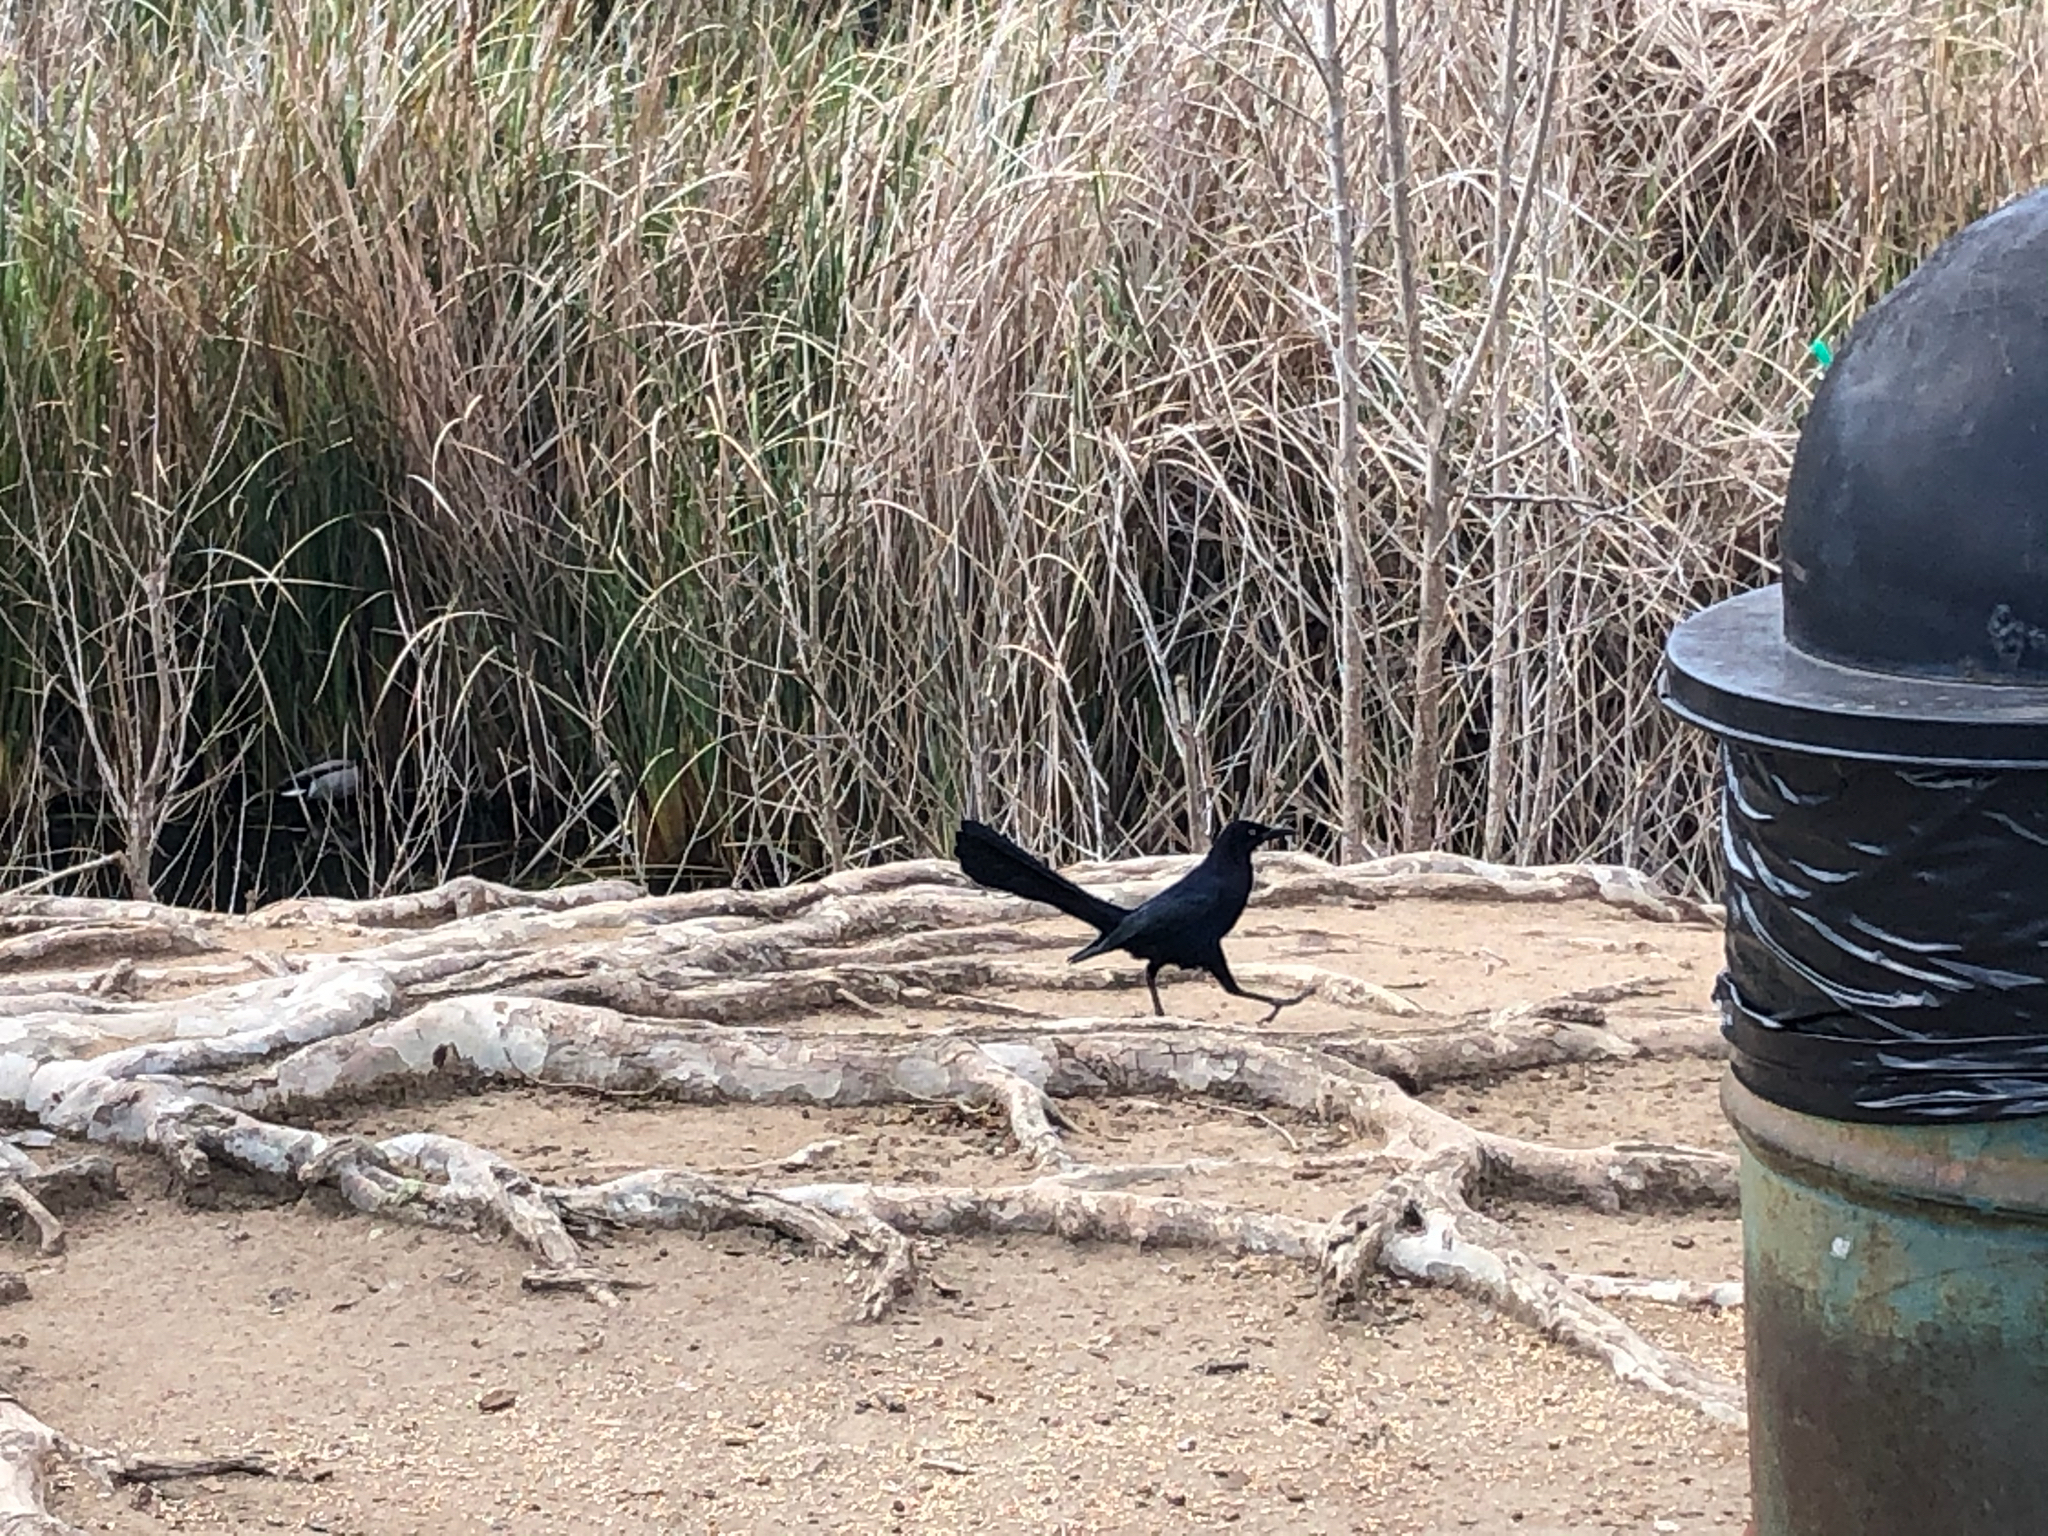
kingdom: Animalia
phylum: Chordata
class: Aves
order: Passeriformes
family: Icteridae
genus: Quiscalus
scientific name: Quiscalus mexicanus
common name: Great-tailed grackle
